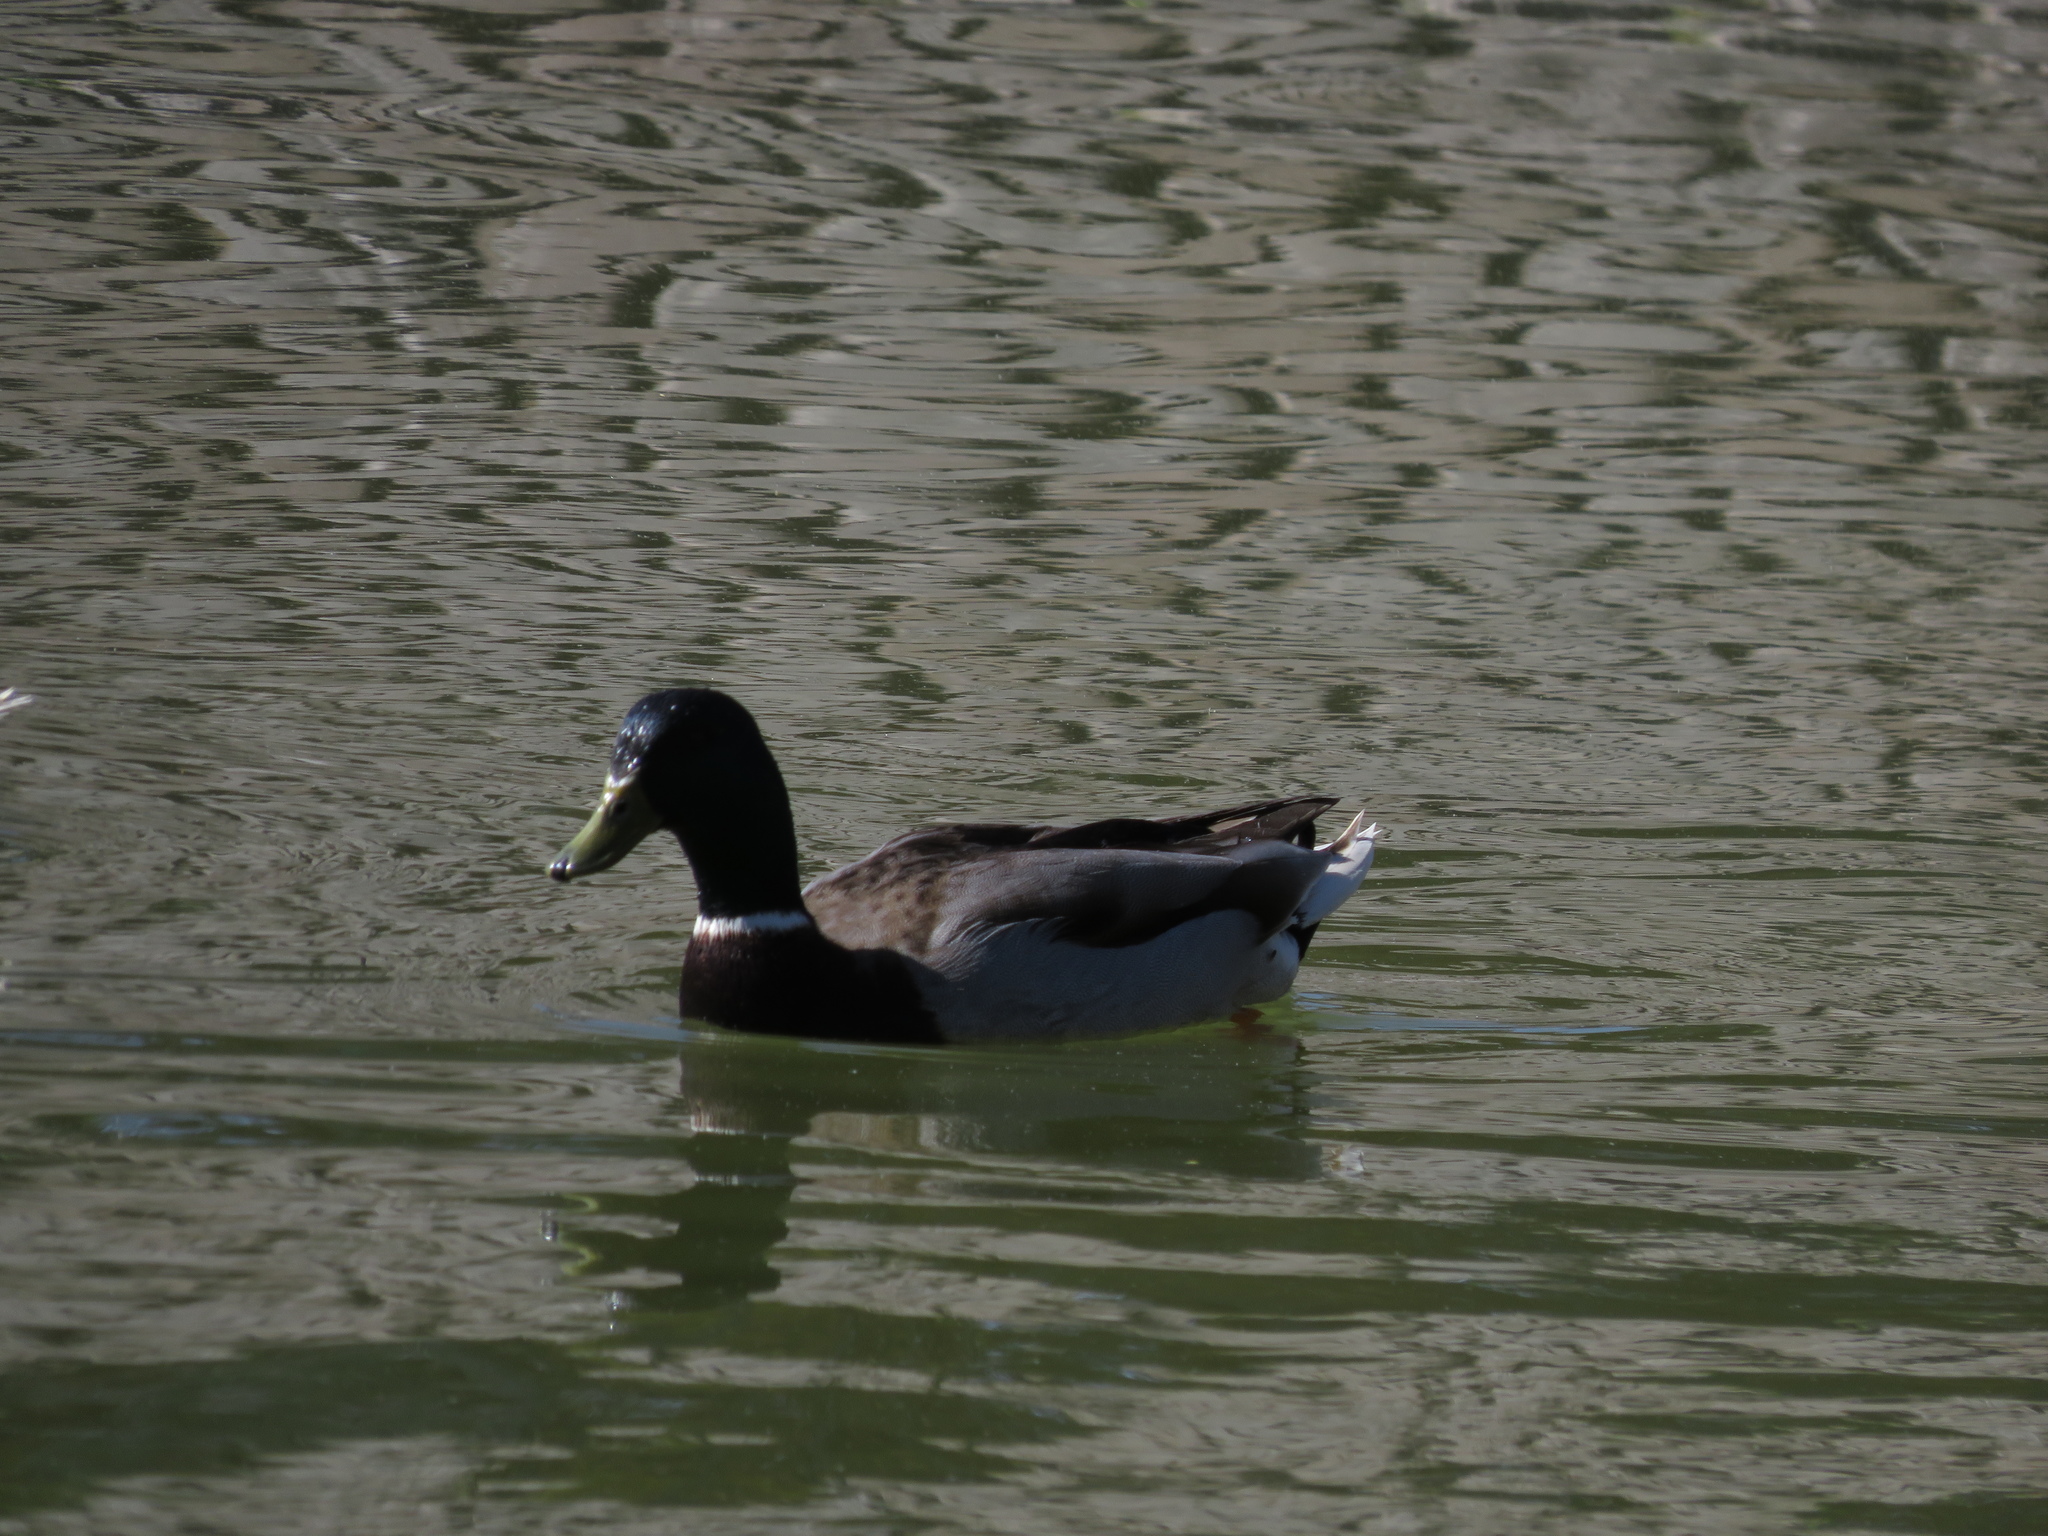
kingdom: Animalia
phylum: Chordata
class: Aves
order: Anseriformes
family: Anatidae
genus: Anas
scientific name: Anas platyrhynchos
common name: Mallard
